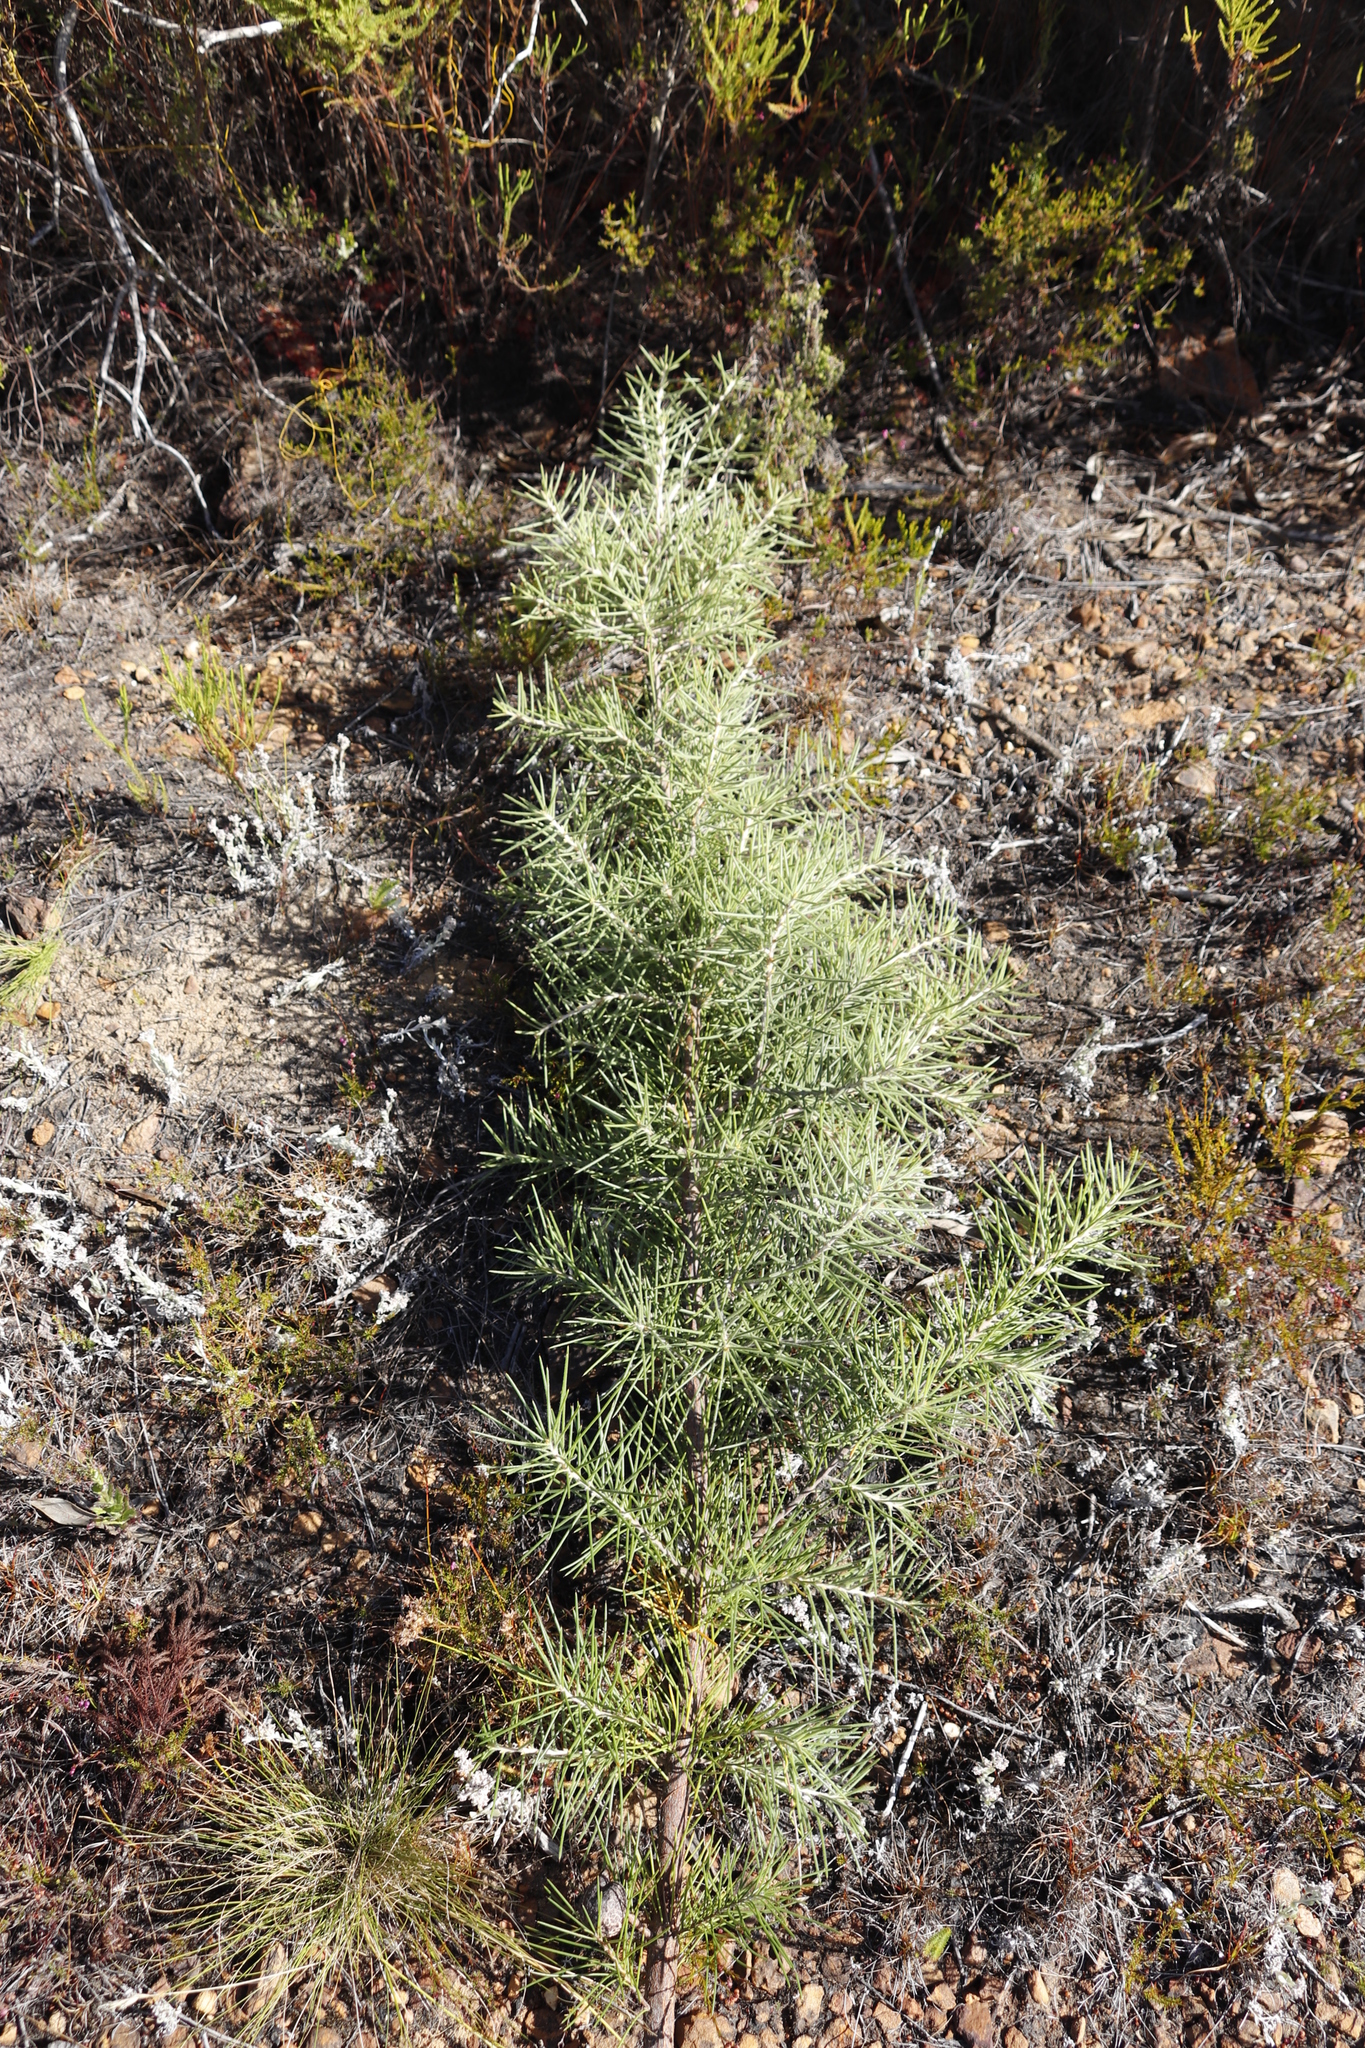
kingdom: Plantae
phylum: Tracheophyta
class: Magnoliopsida
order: Proteales
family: Proteaceae
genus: Hakea
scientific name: Hakea gibbosa
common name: Rock hakea
